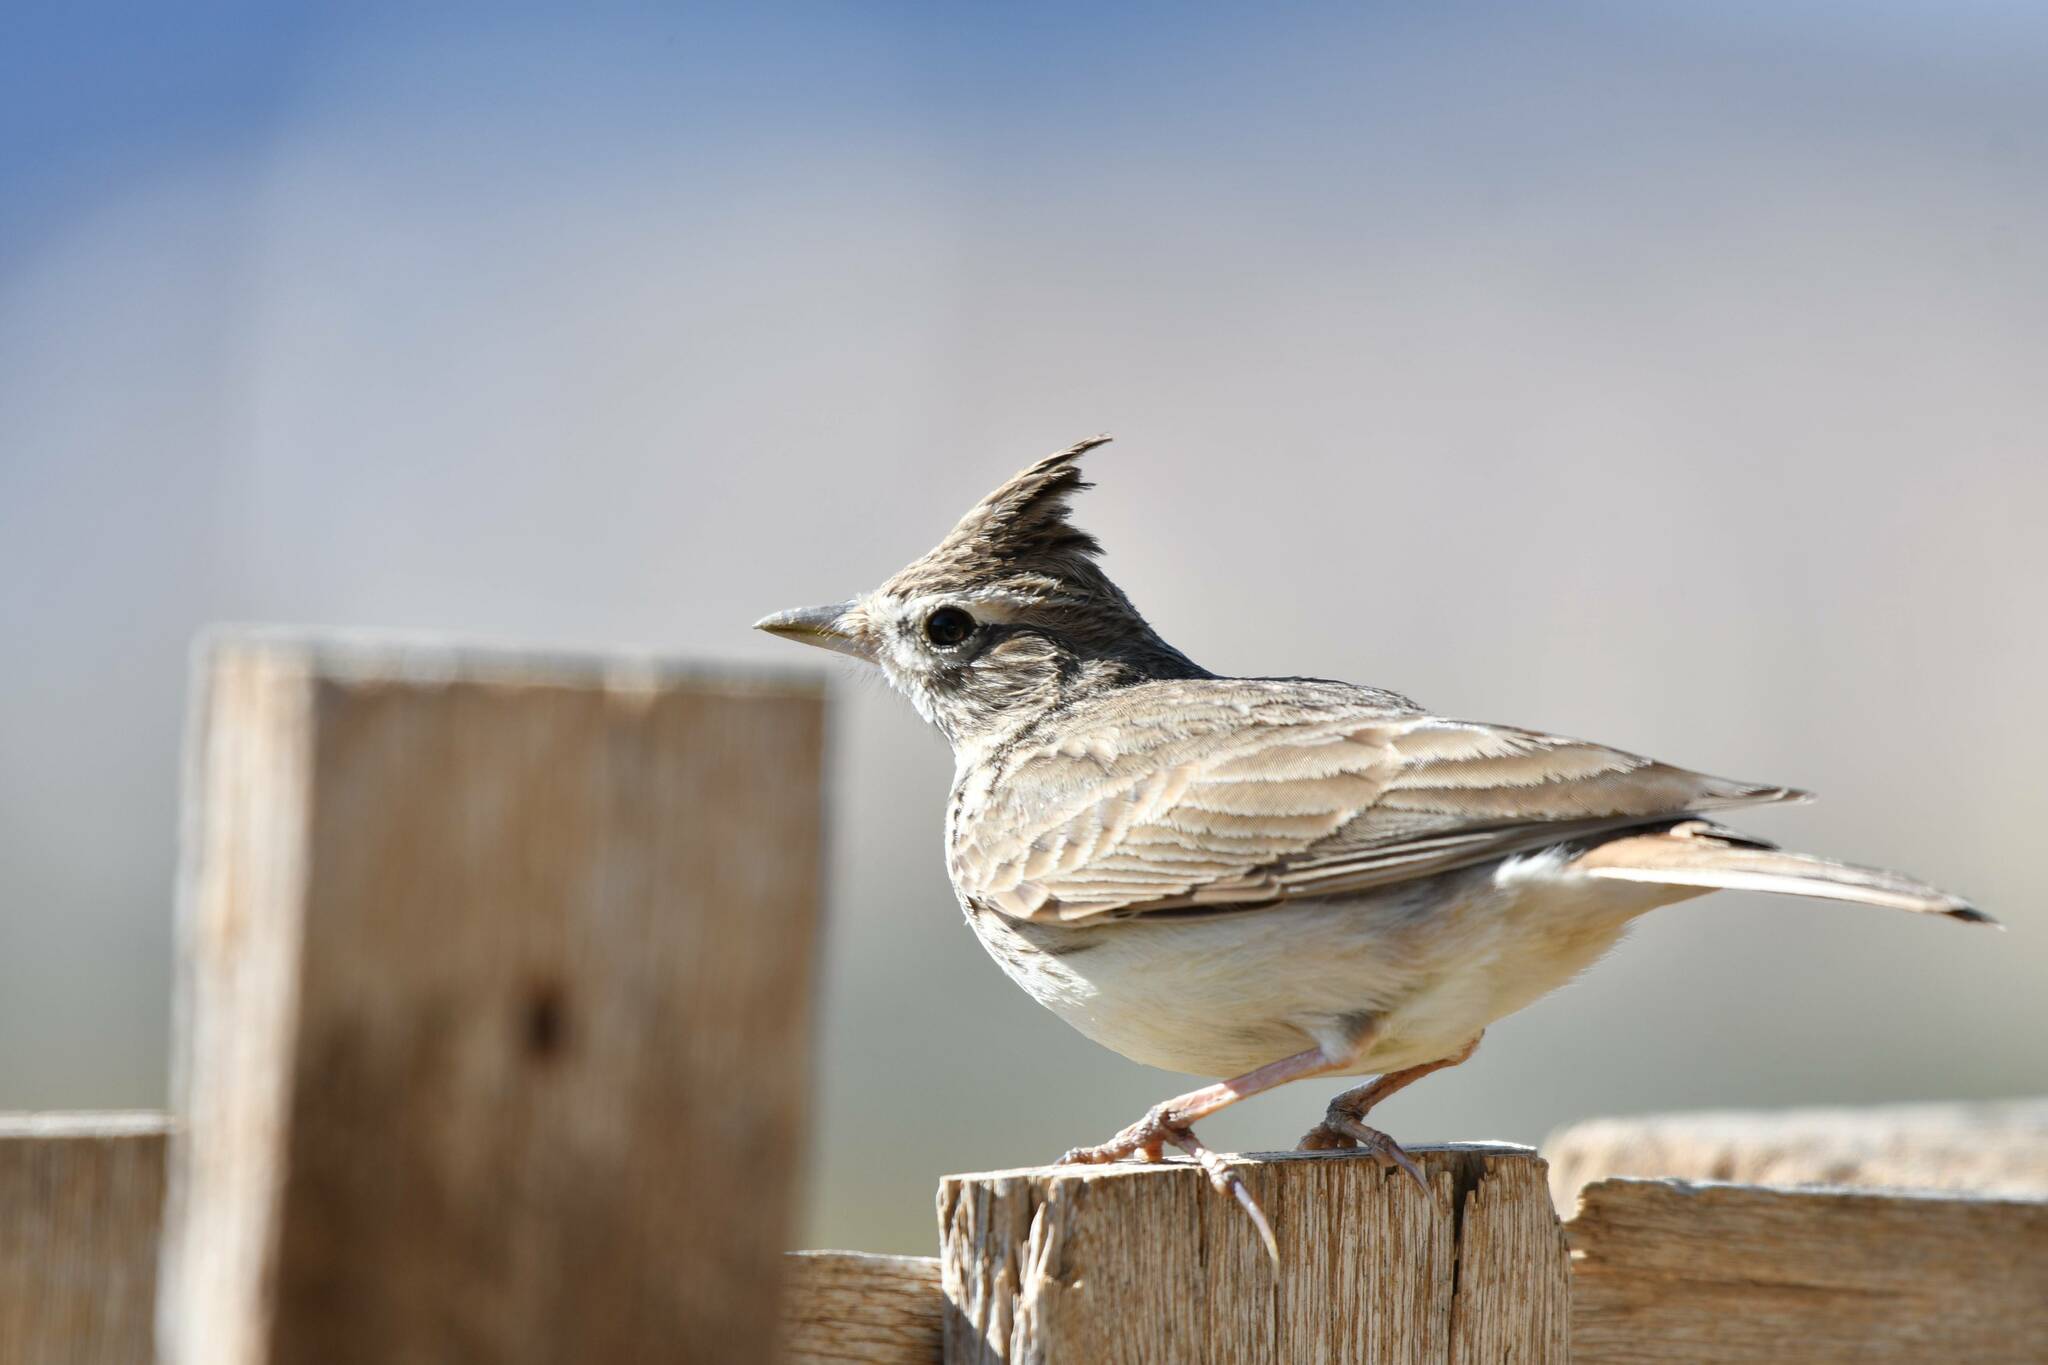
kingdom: Animalia
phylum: Chordata
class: Aves
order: Passeriformes
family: Alaudidae
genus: Galerida
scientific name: Galerida theklae
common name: Thekla lark
